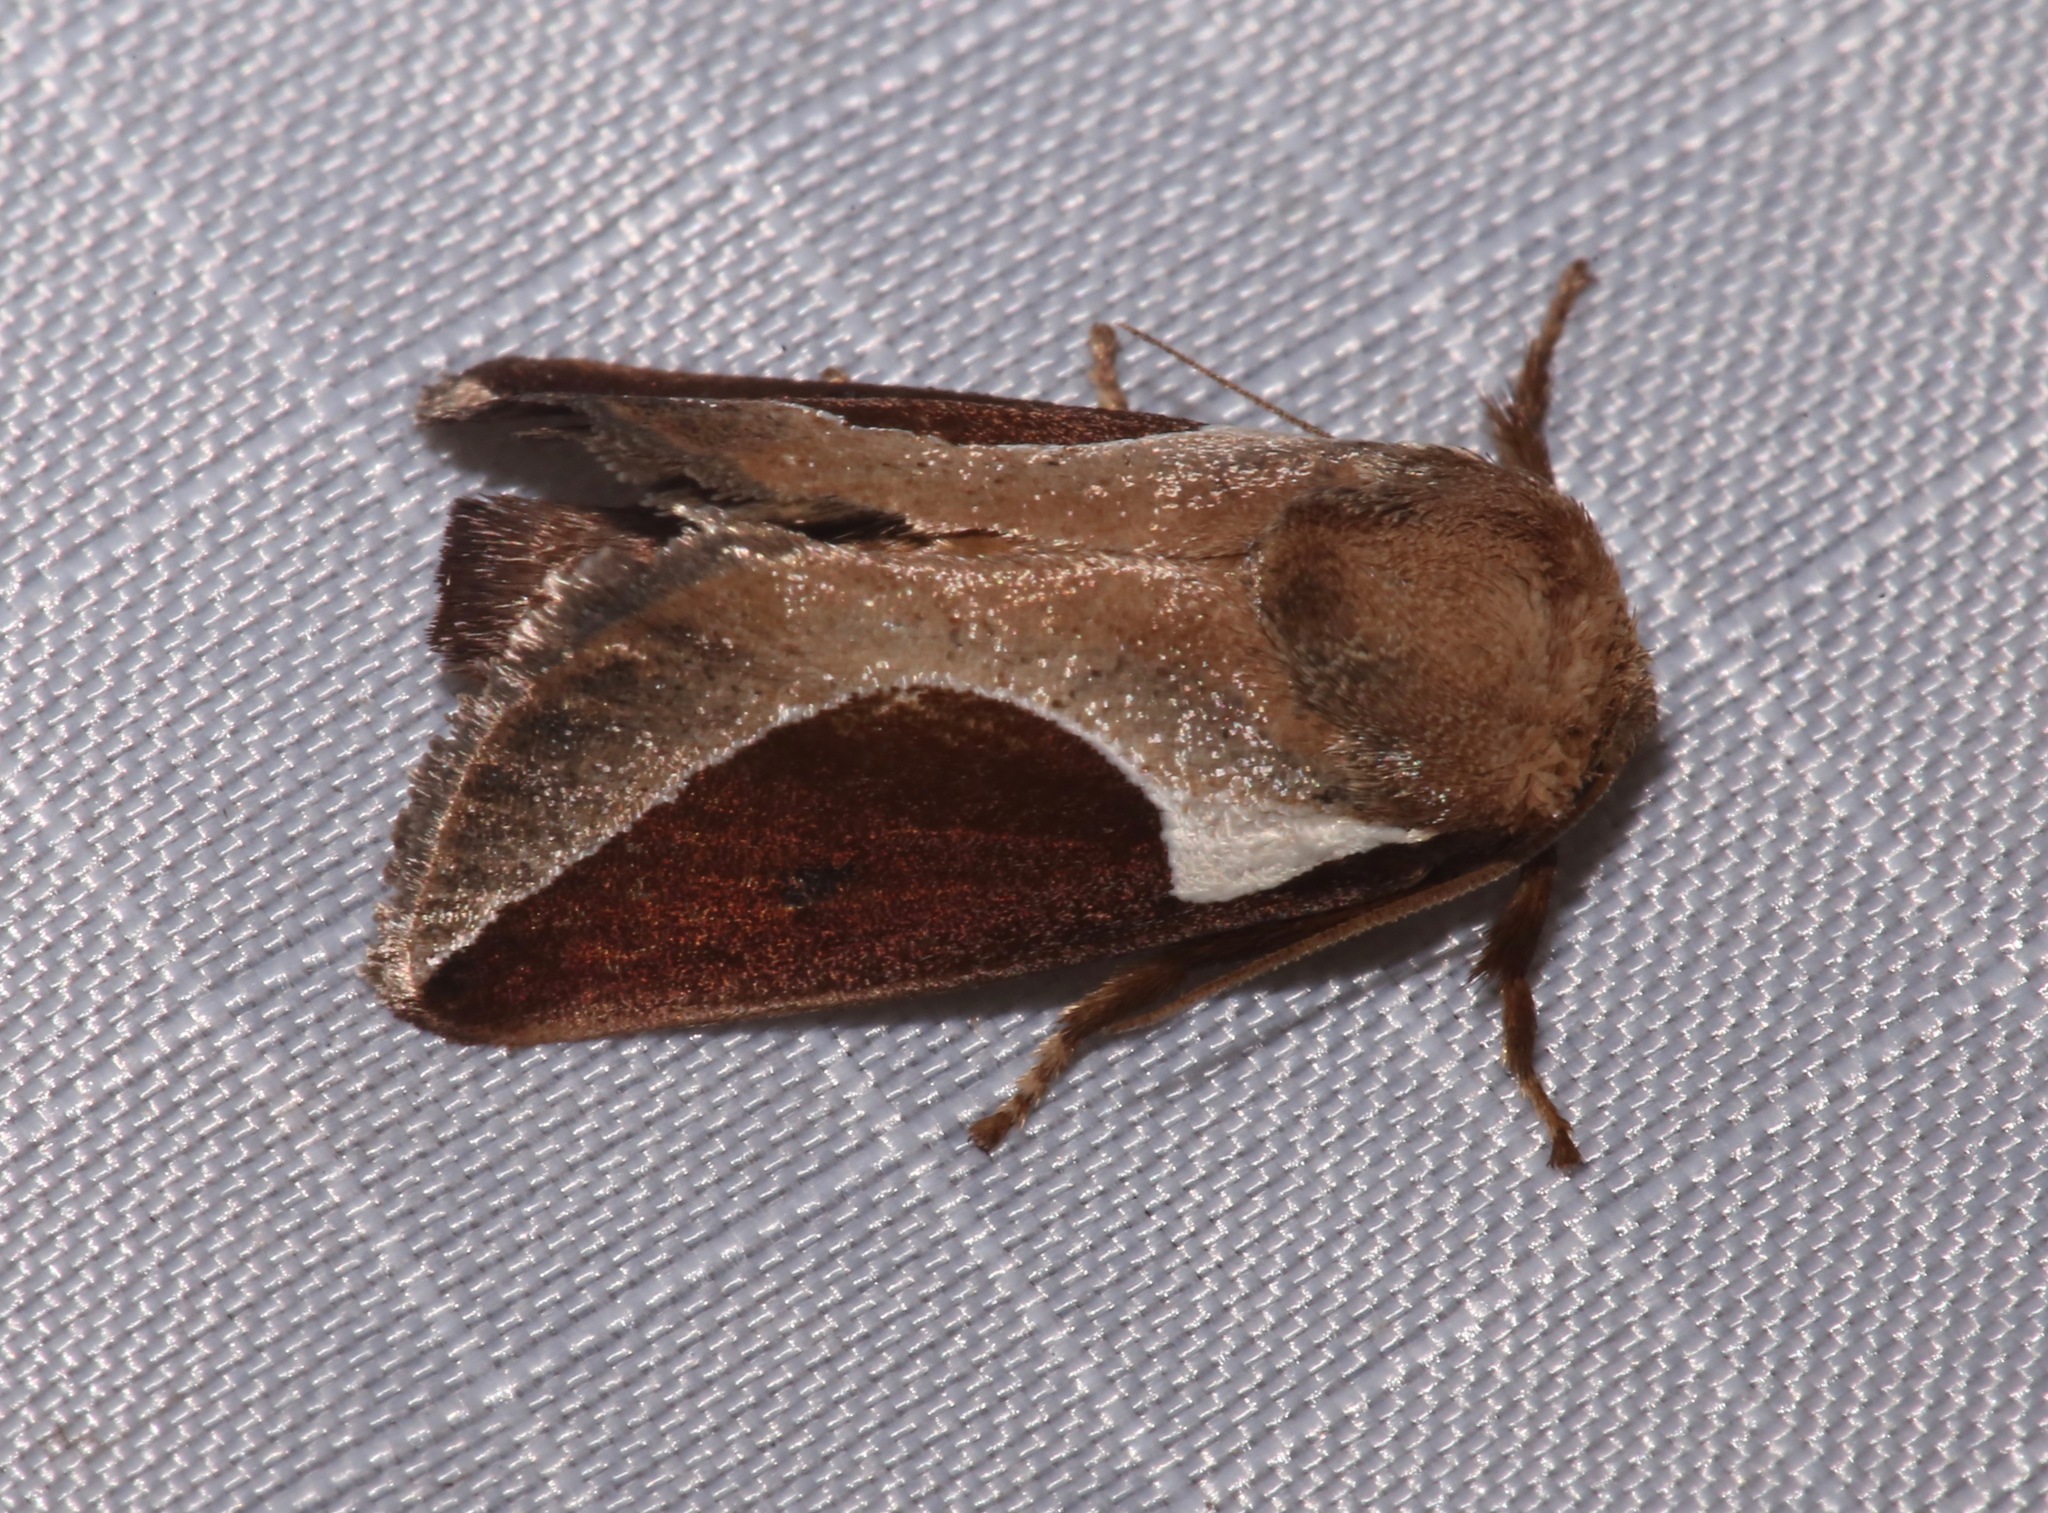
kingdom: Animalia
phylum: Arthropoda
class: Insecta
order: Lepidoptera
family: Limacodidae
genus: Prolimacodes
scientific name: Prolimacodes badia
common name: Skiff moth
